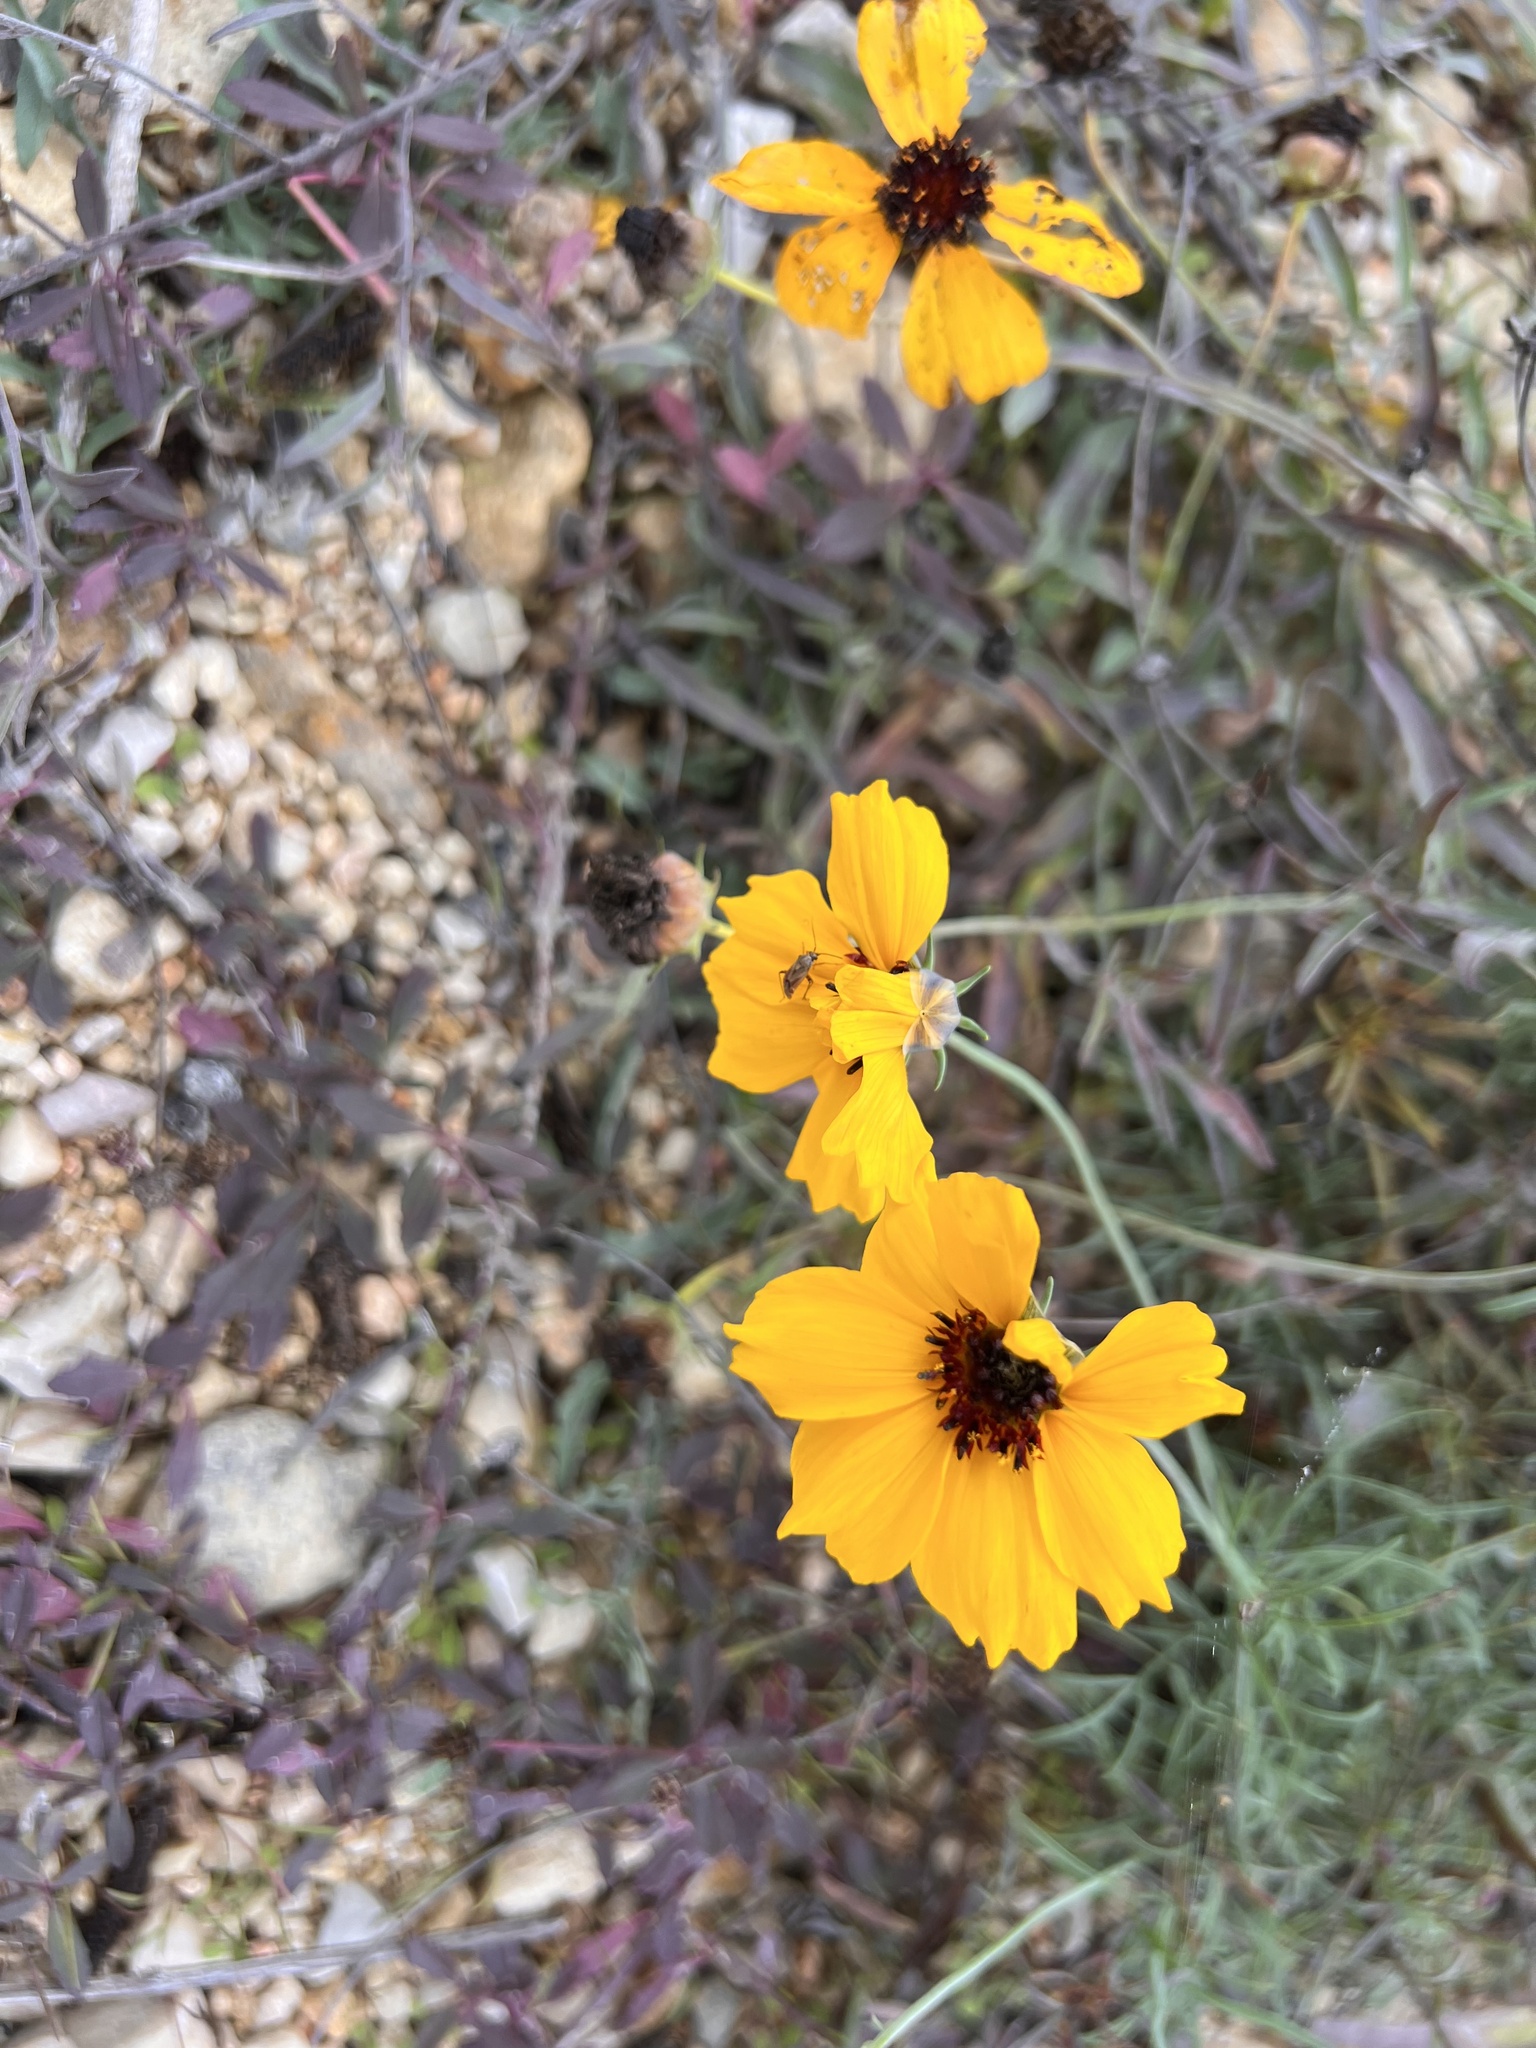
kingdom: Plantae
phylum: Tracheophyta
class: Magnoliopsida
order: Asterales
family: Asteraceae
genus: Thelesperma
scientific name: Thelesperma filifolium
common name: Stiff greenthread
